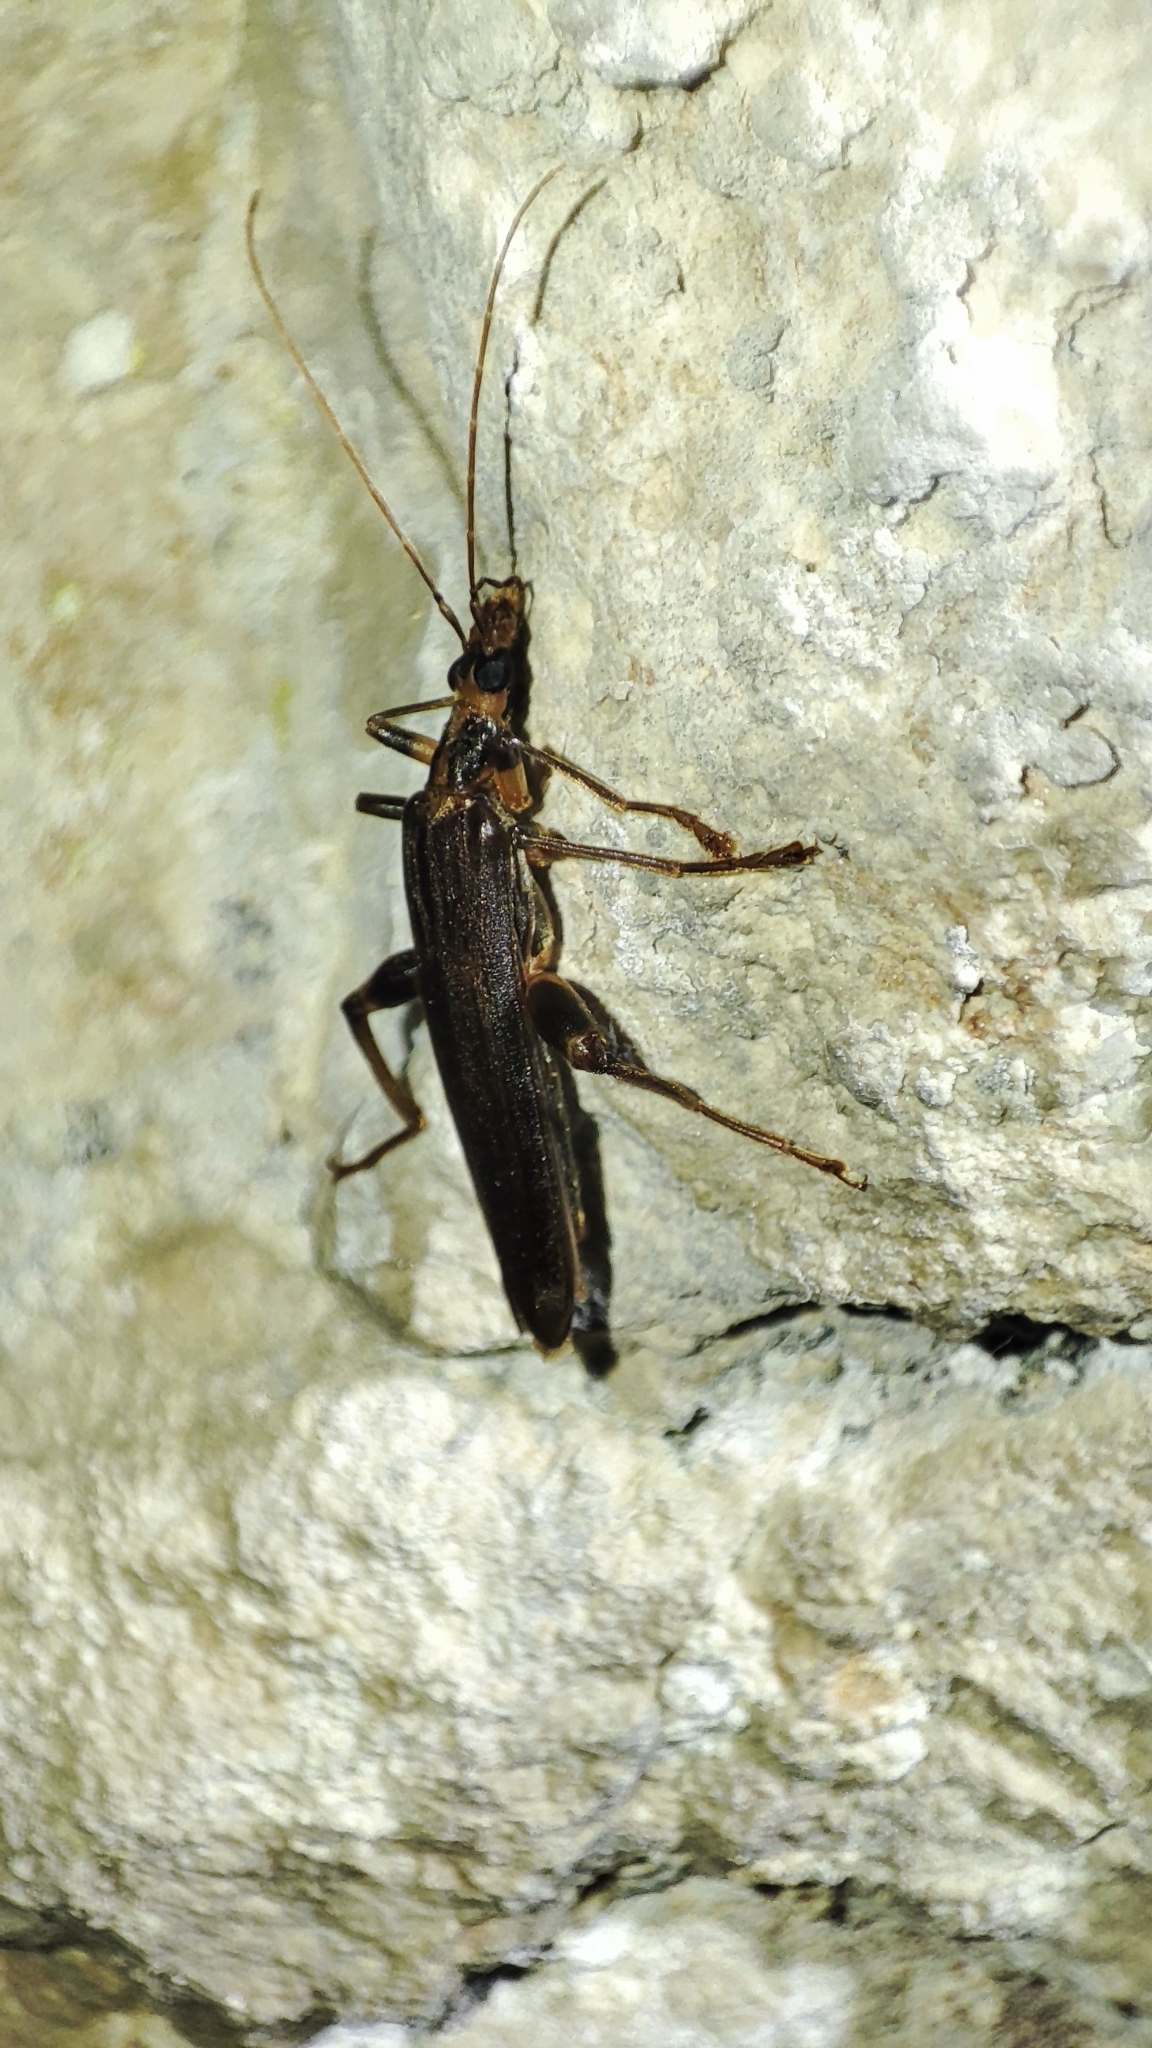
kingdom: Animalia
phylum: Arthropoda
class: Insecta
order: Coleoptera
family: Oedemeridae
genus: Oedemera
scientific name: Oedemera femoralis
